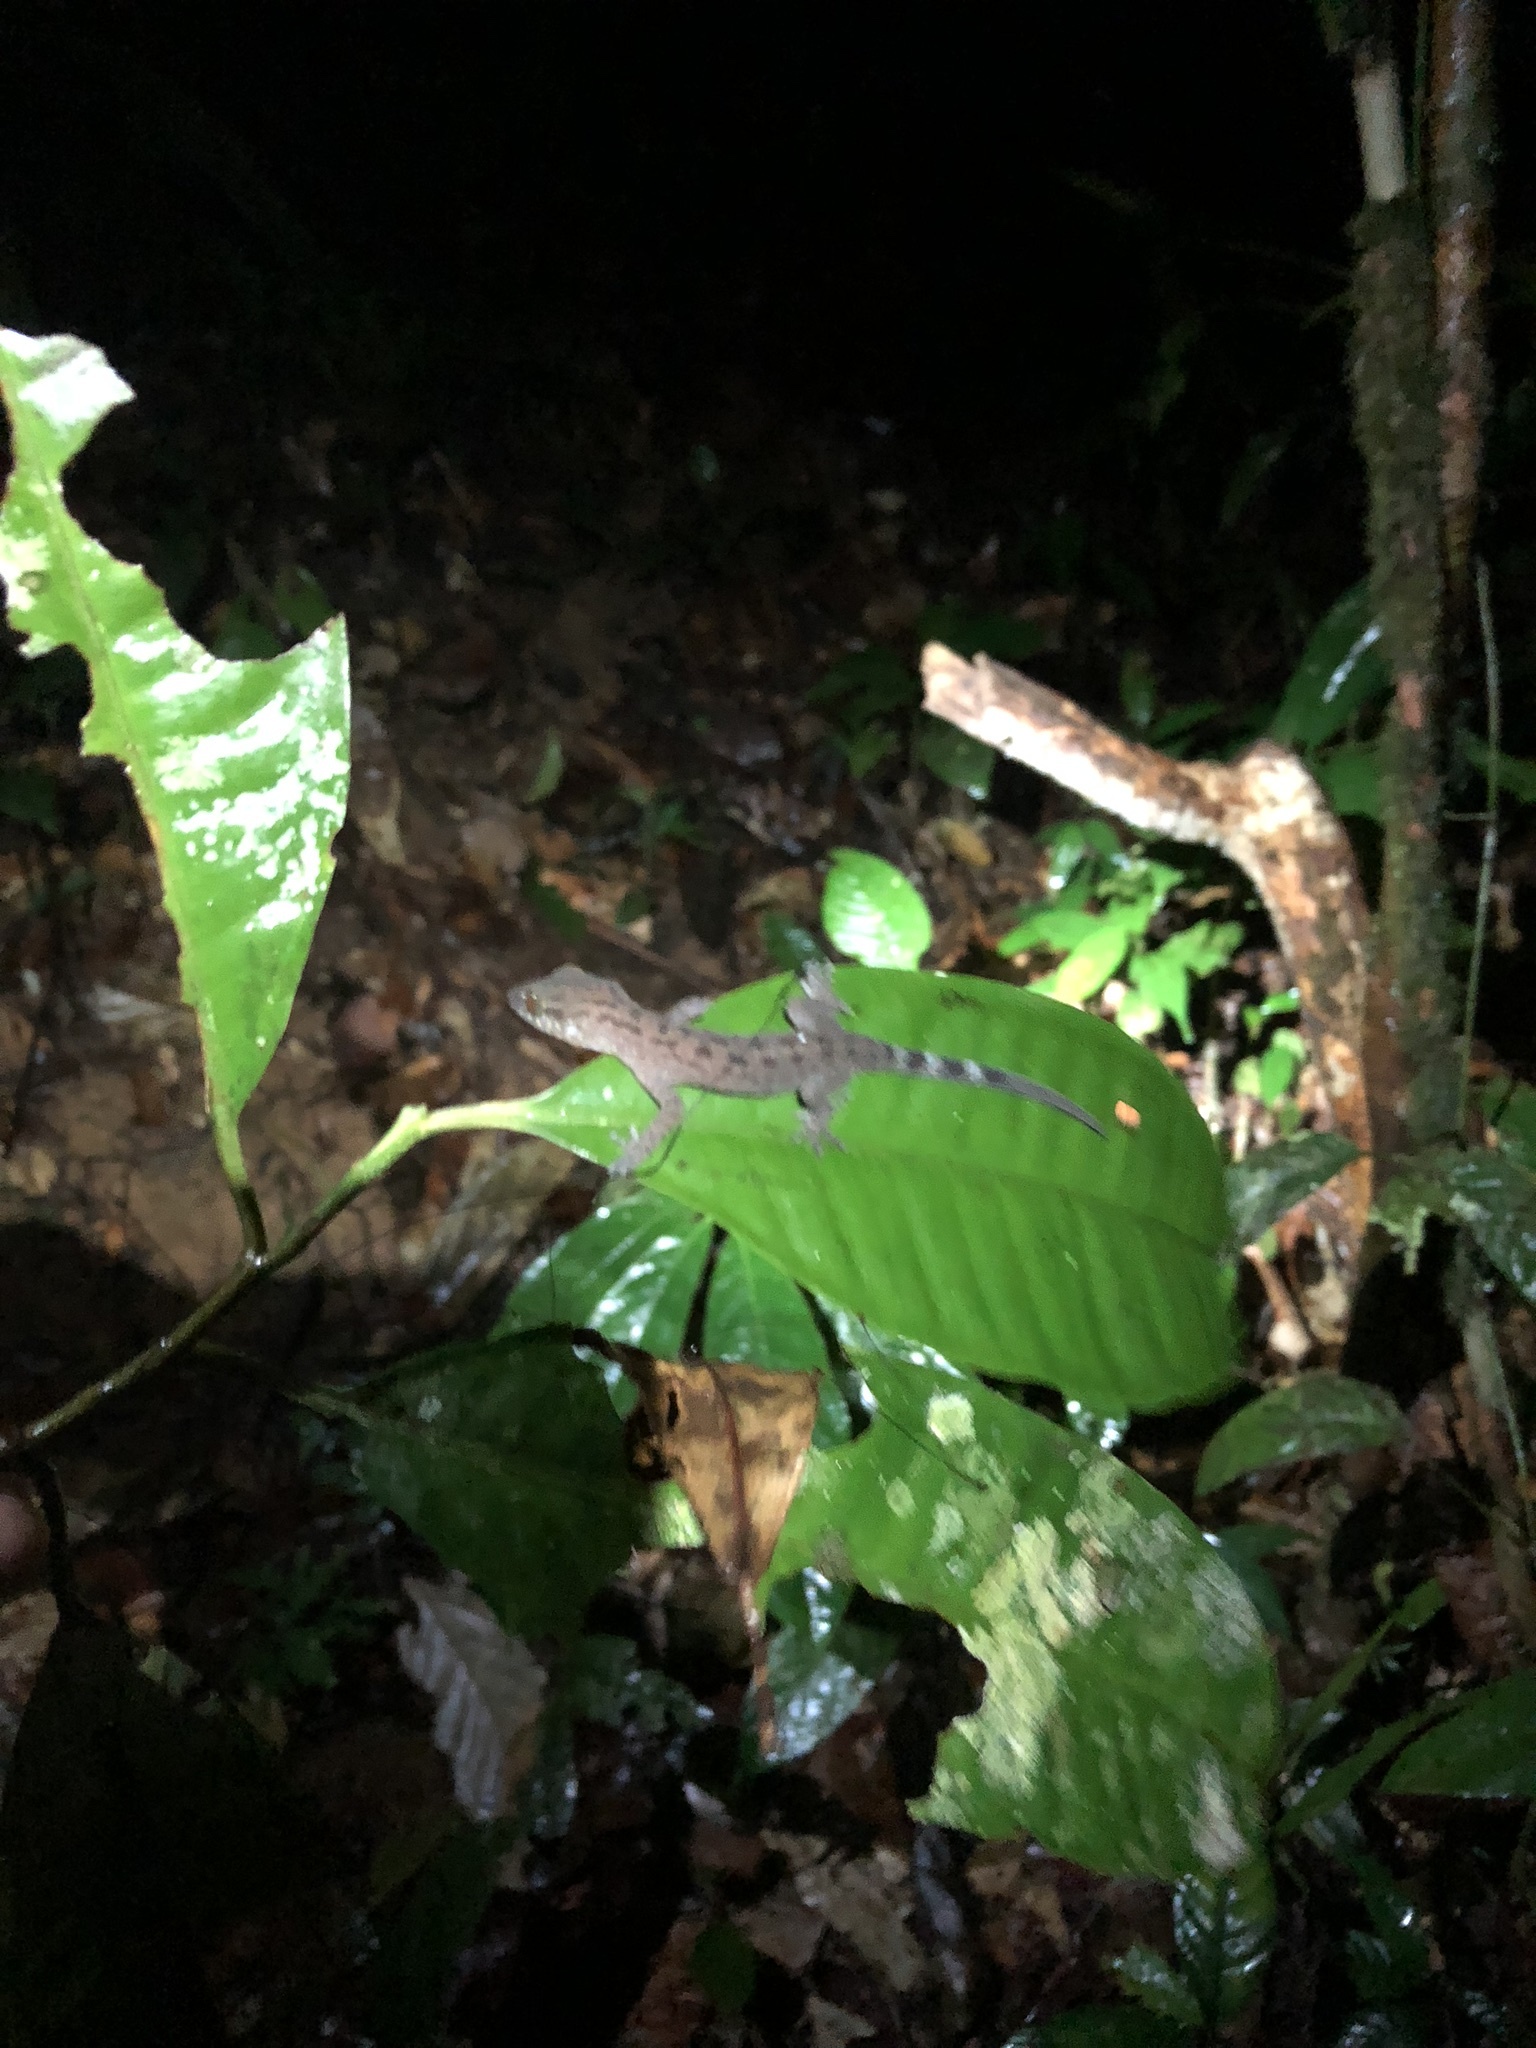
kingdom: Animalia
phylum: Chordata
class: Squamata
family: Gekkonidae
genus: Cyrtodactylus
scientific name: Cyrtodactylus miriensis
